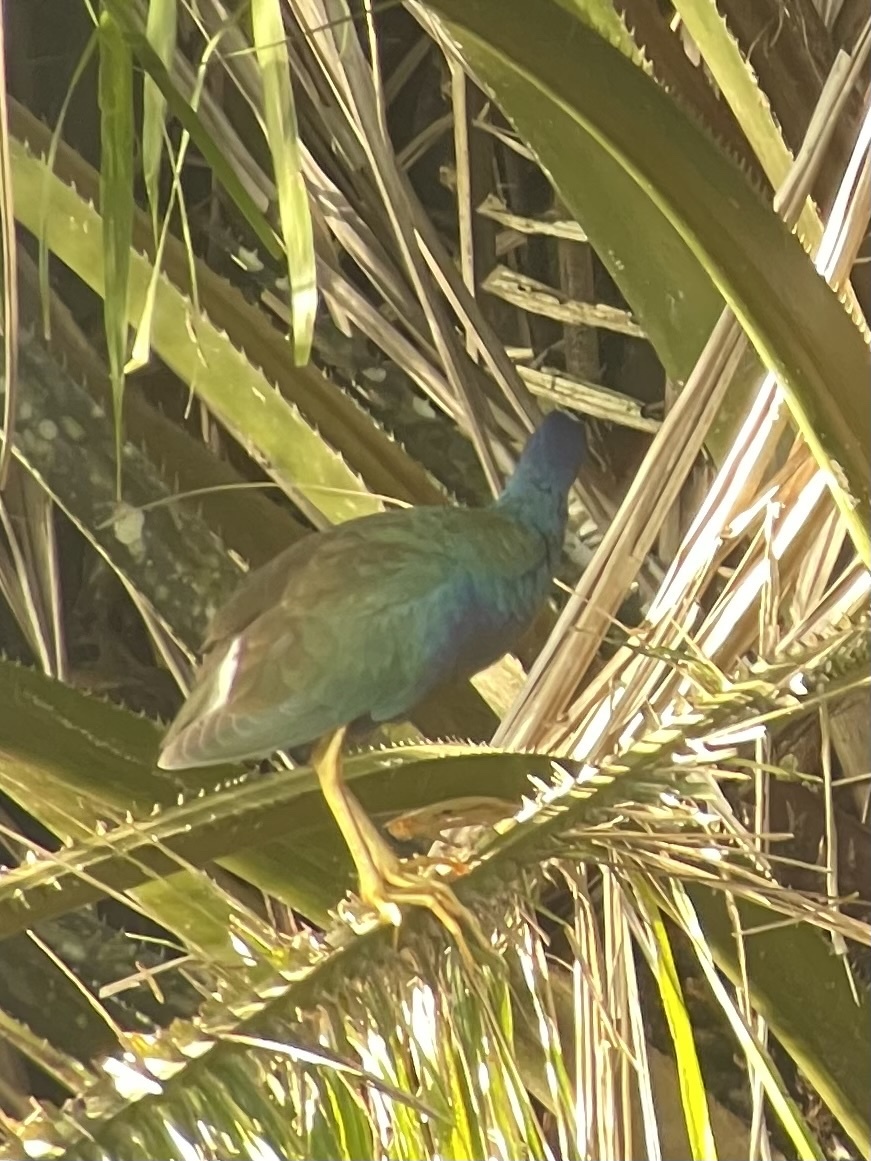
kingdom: Animalia
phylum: Chordata
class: Aves
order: Gruiformes
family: Rallidae
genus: Porphyrio
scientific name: Porphyrio martinica
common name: Purple gallinule
